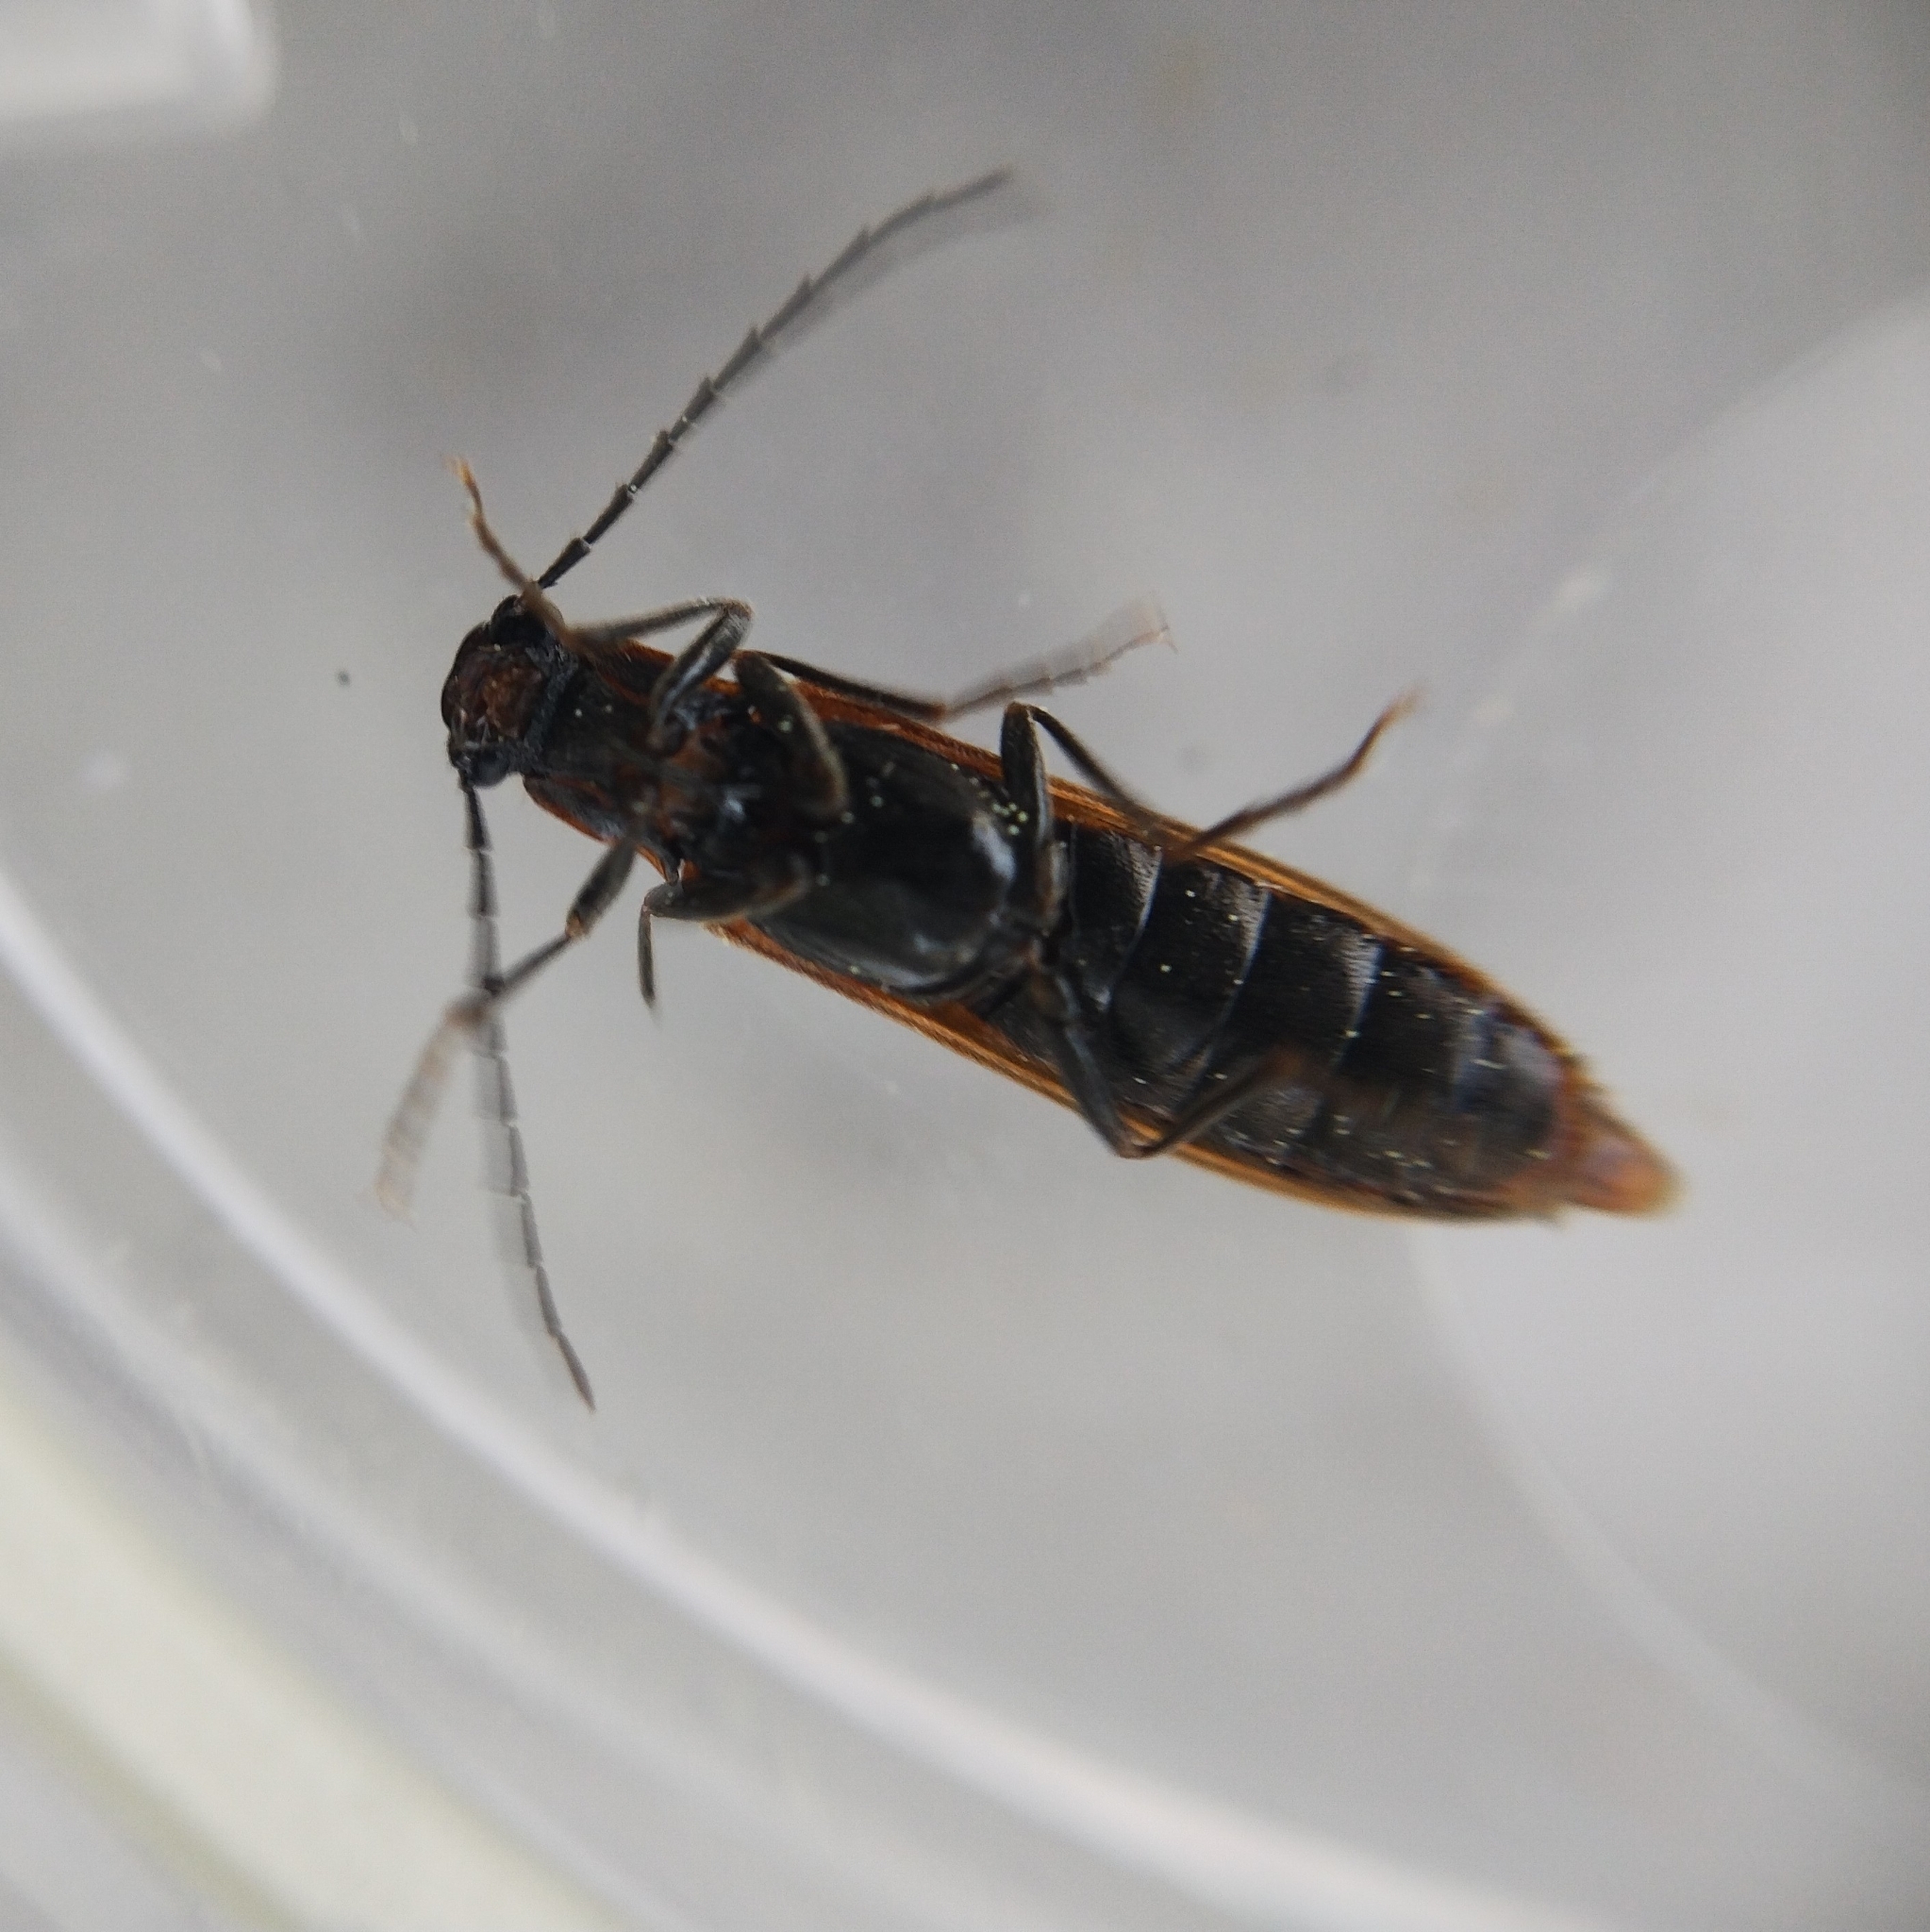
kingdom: Animalia
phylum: Arthropoda
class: Insecta
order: Coleoptera
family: Elateridae
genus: Denticollis
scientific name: Denticollis linearis
